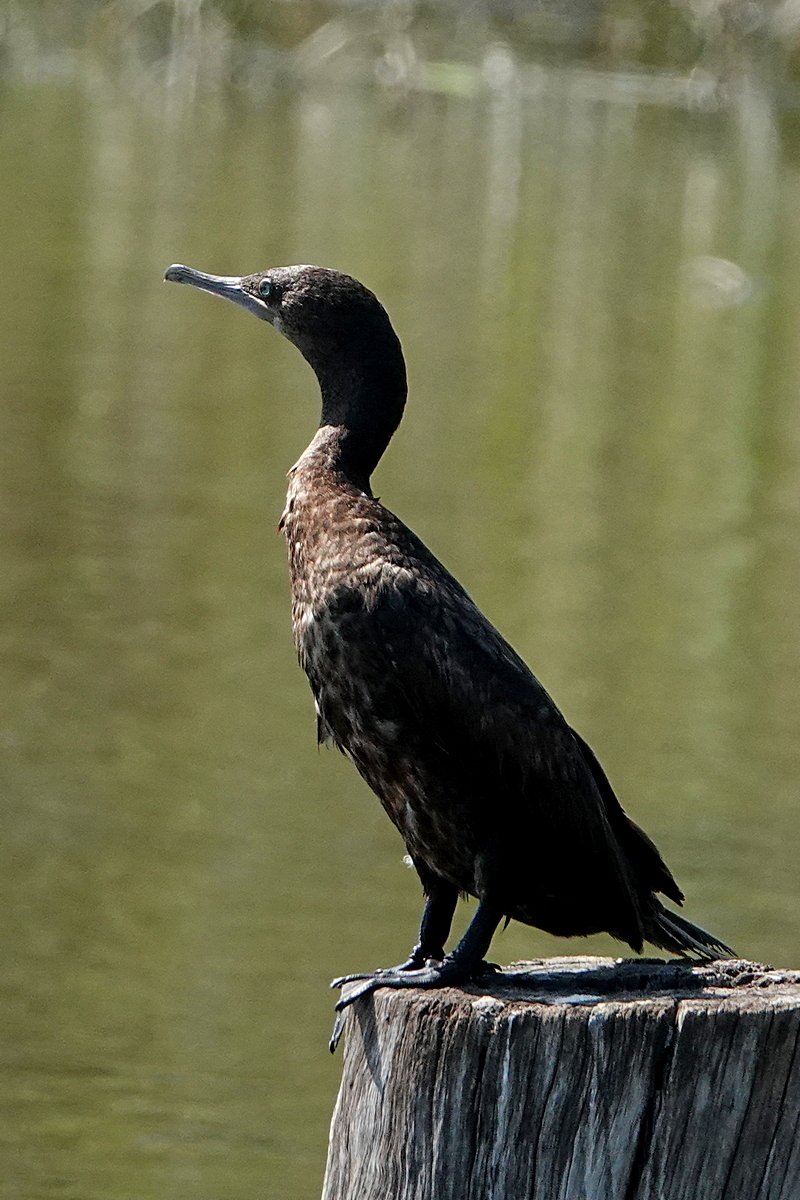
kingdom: Animalia
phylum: Chordata
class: Aves
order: Suliformes
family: Phalacrocoracidae
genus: Phalacrocorax
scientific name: Phalacrocorax sulcirostris
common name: Little black cormorant
